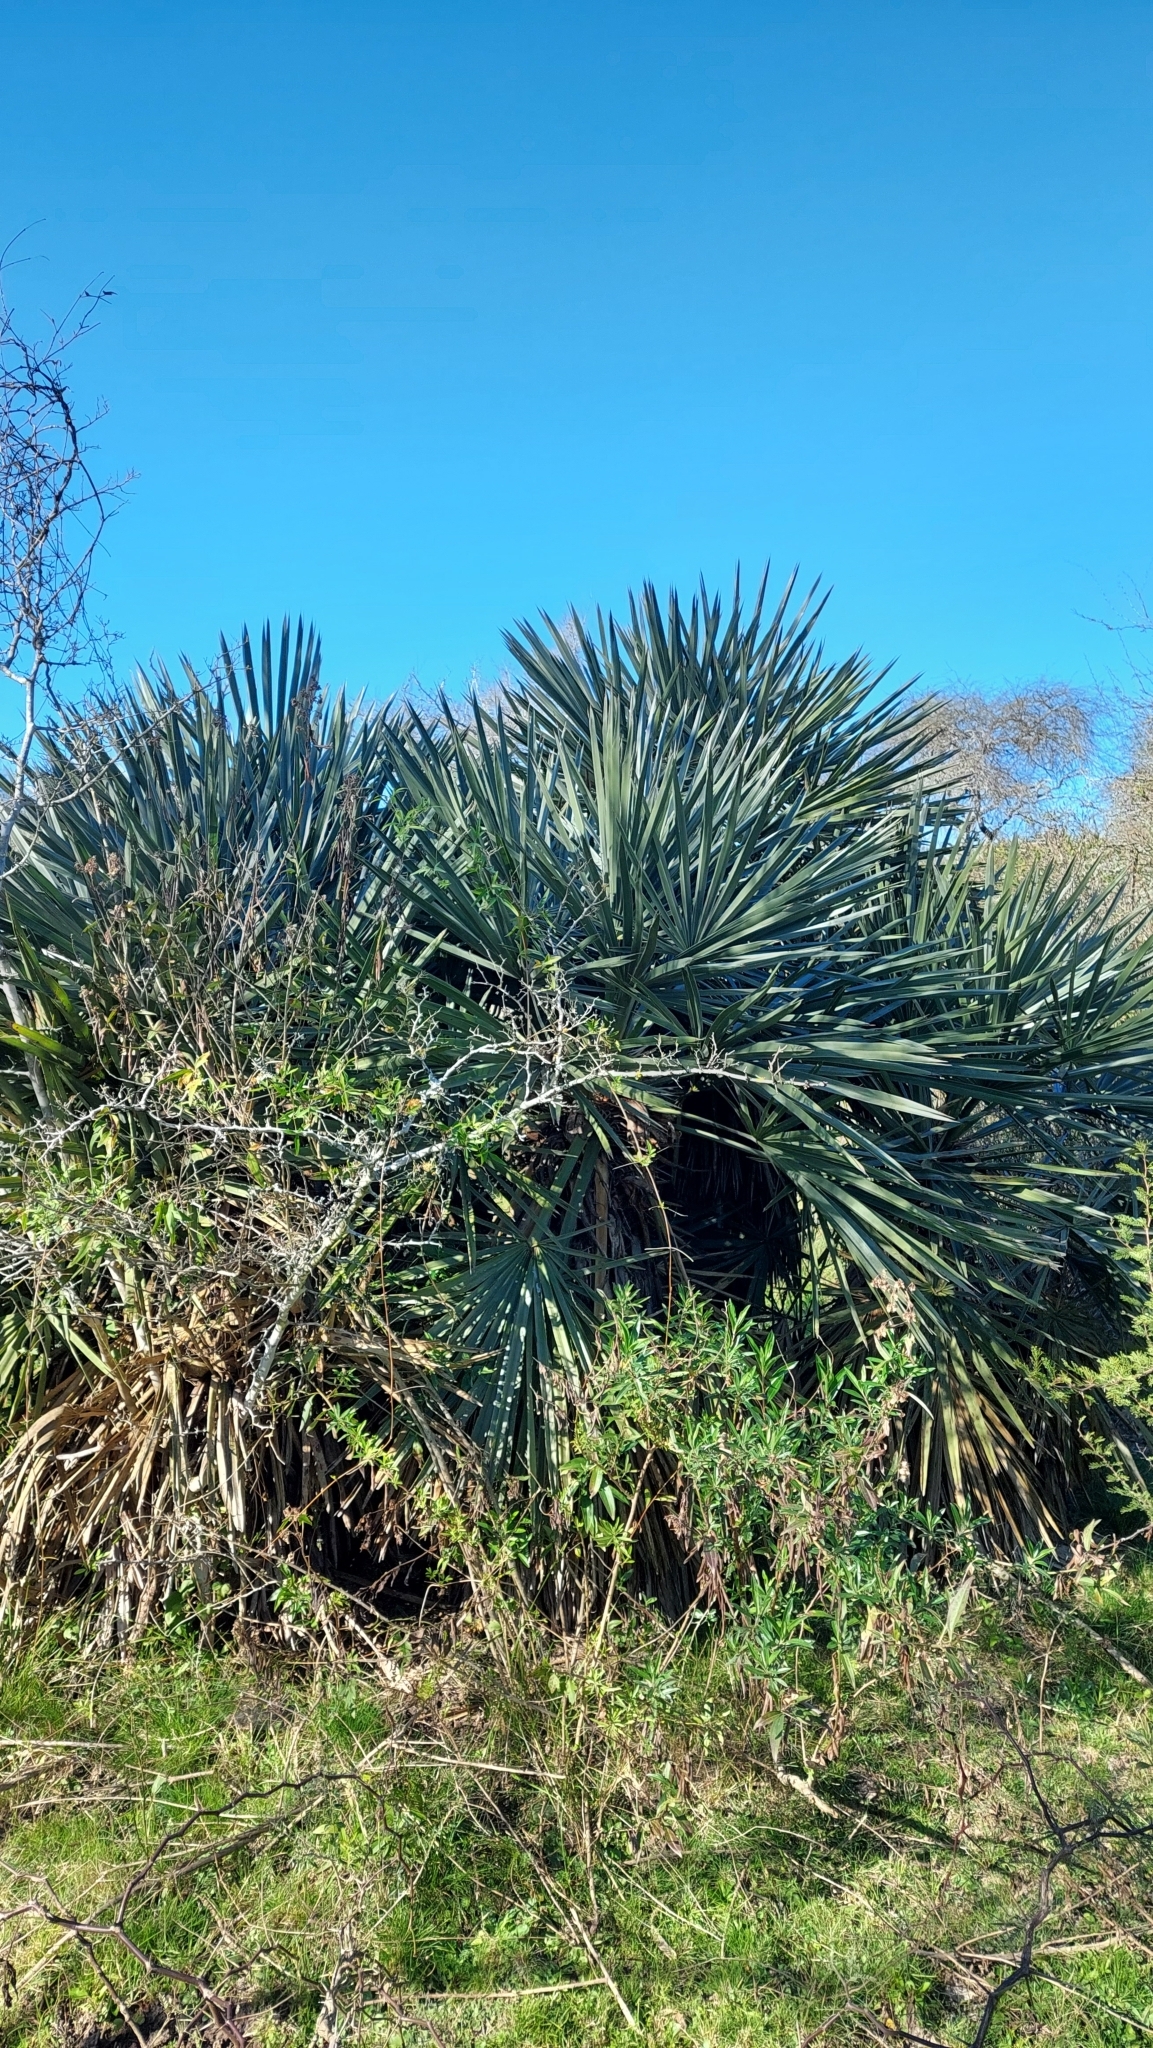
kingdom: Plantae
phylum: Tracheophyta
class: Liliopsida
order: Arecales
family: Arecaceae
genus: Trithrinax
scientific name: Trithrinax campestris
